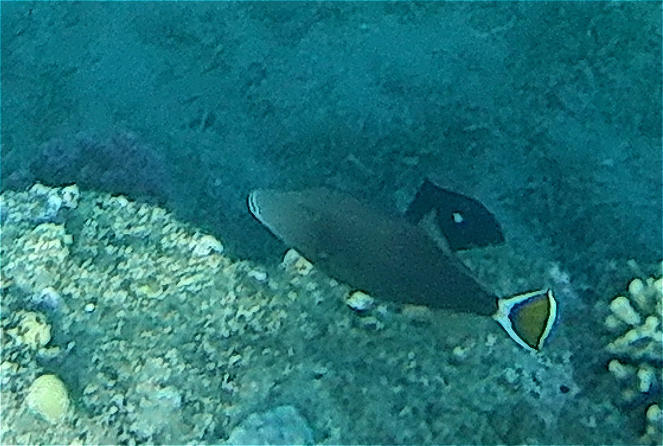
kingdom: Animalia
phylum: Chordata
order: Tetraodontiformes
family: Balistidae
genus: Sufflamen
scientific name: Sufflamen albicaudatum
